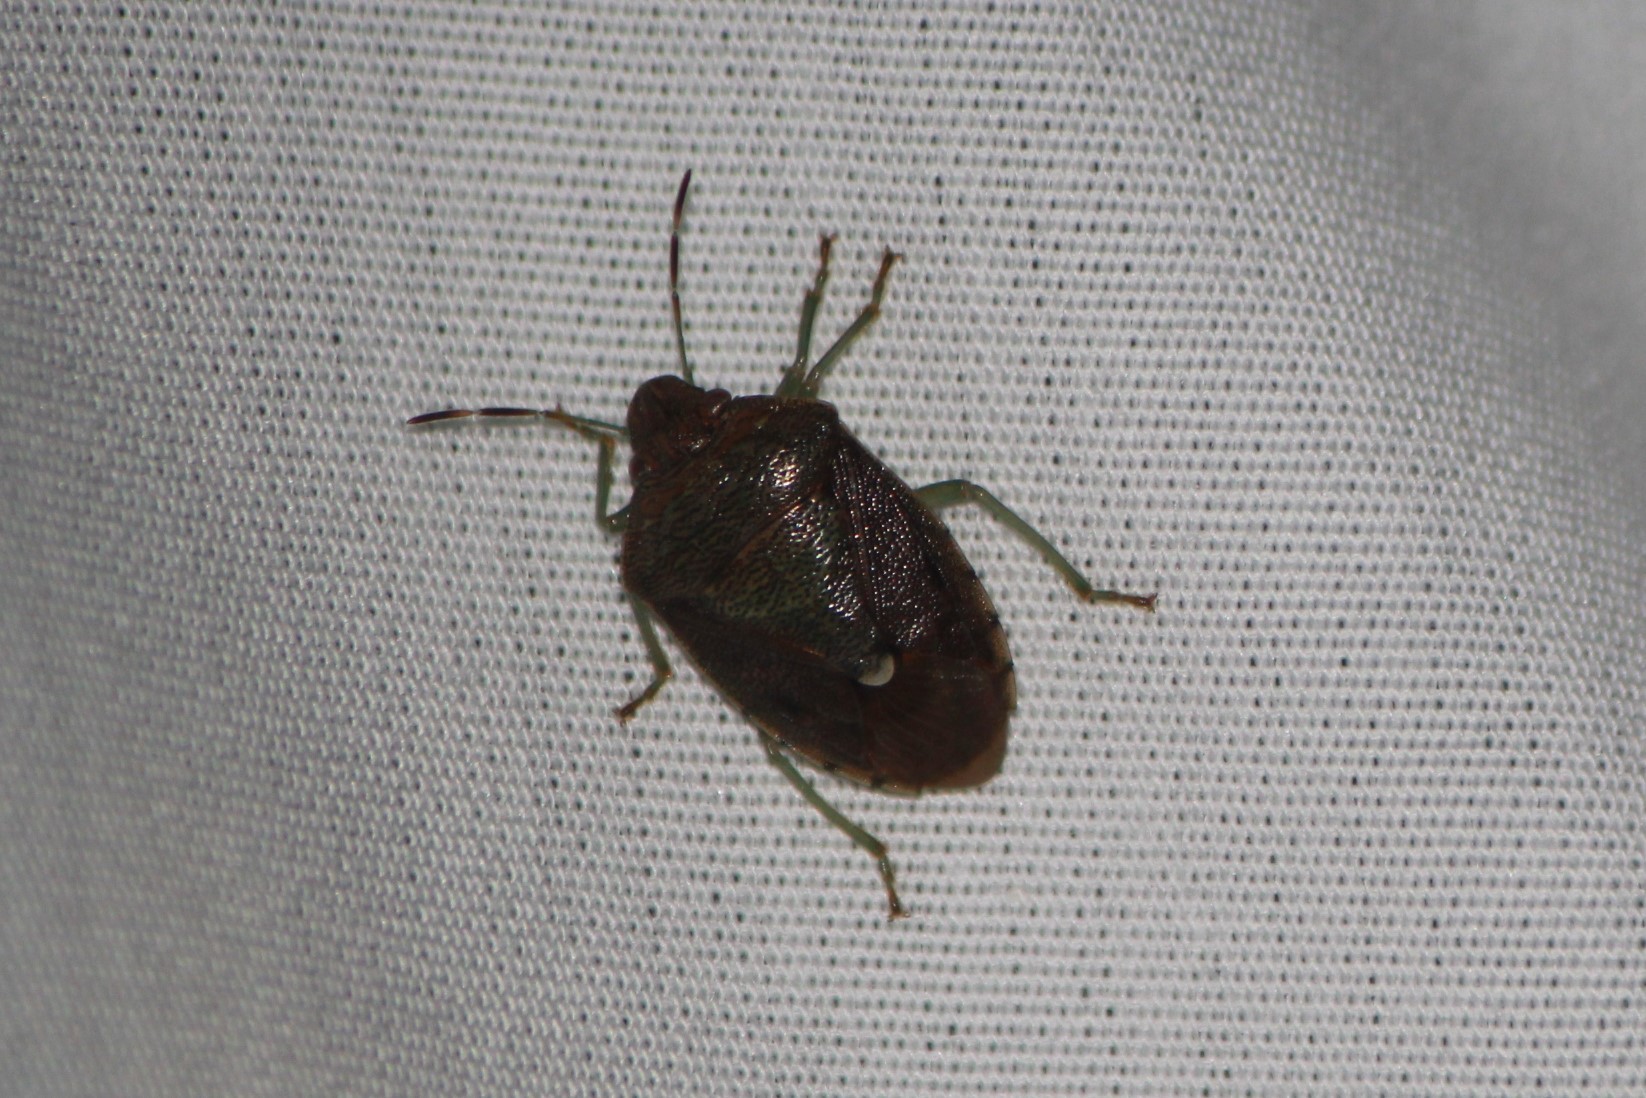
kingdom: Animalia
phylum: Arthropoda
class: Insecta
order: Hemiptera
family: Pentatomidae
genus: Banasa
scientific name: Banasa sordida
